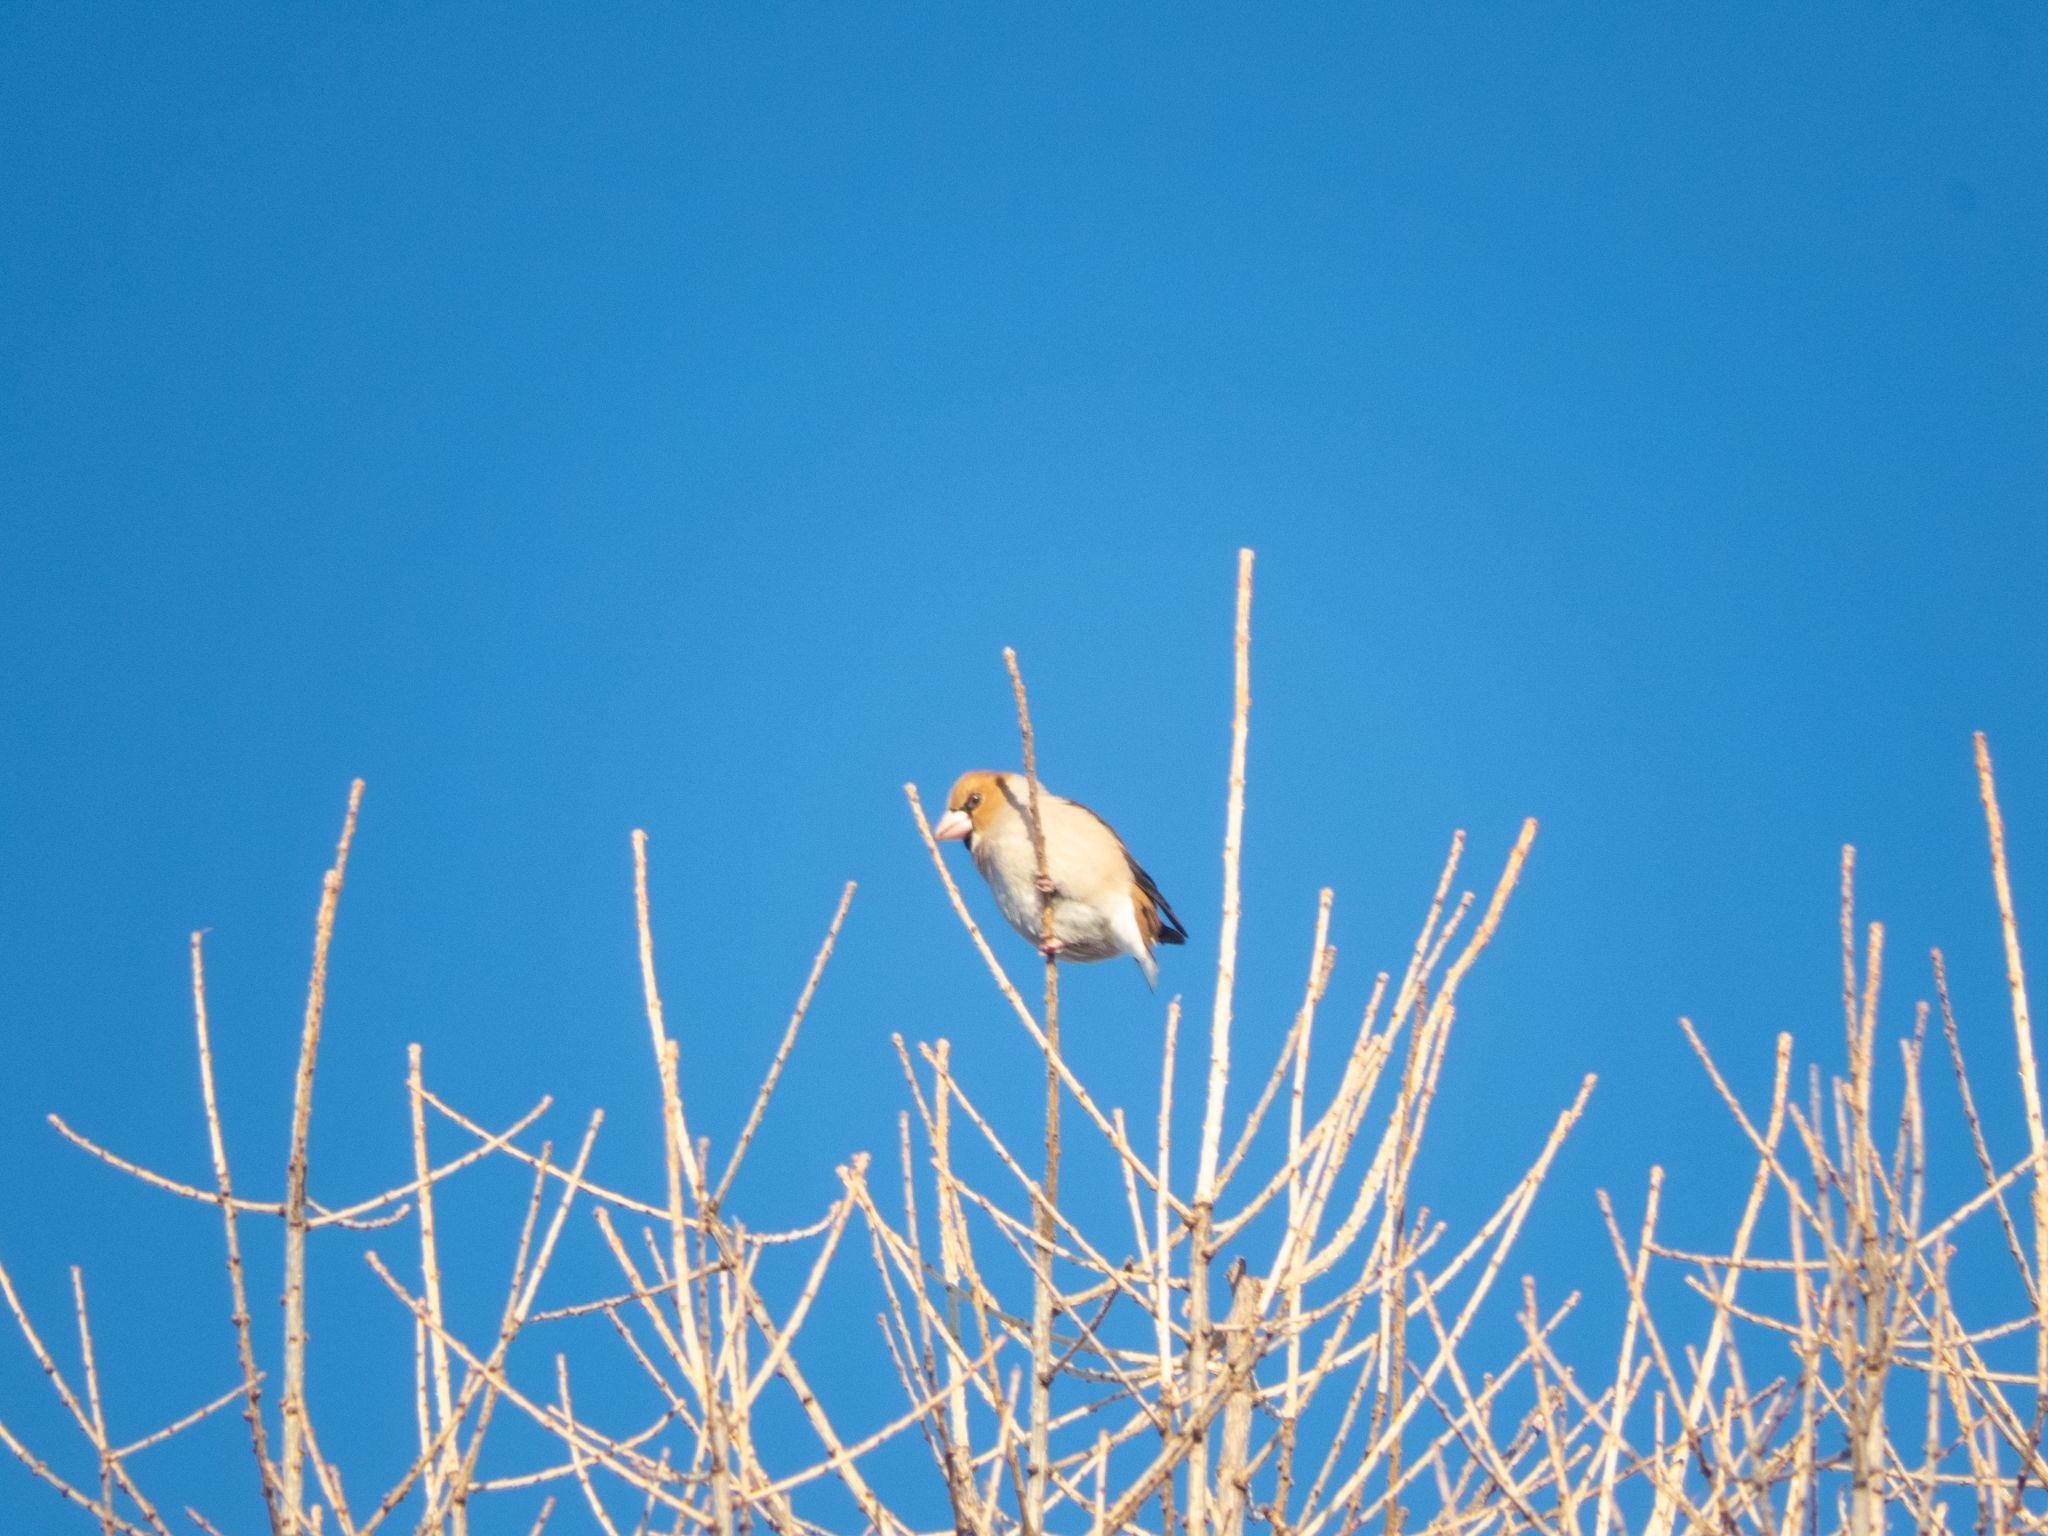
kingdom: Animalia
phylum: Chordata
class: Aves
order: Passeriformes
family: Fringillidae
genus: Coccothraustes
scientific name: Coccothraustes coccothraustes
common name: Hawfinch
